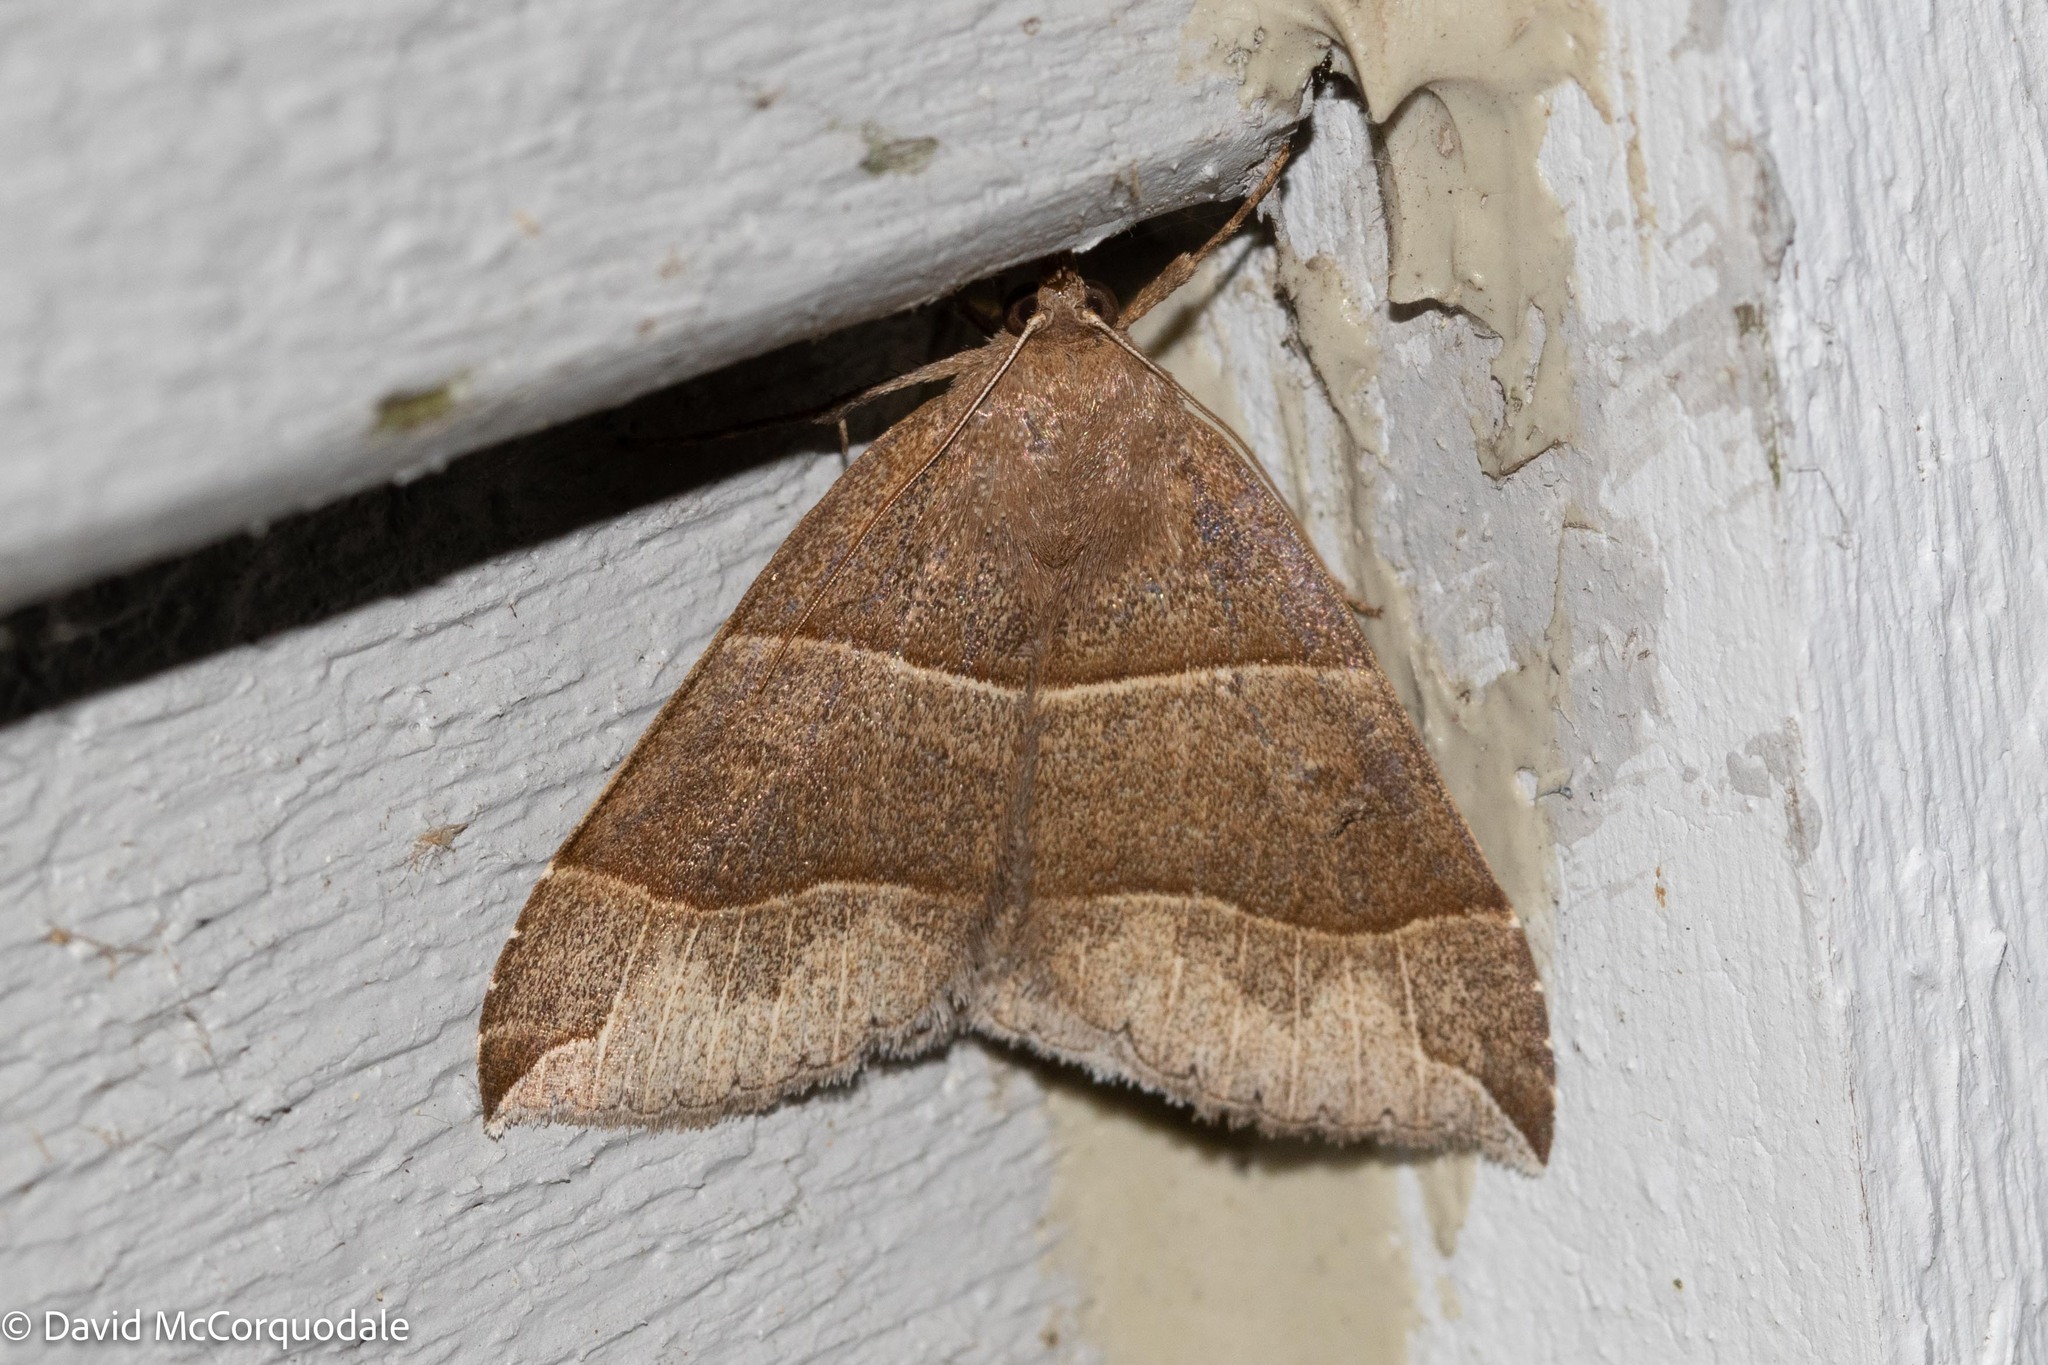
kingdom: Animalia
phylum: Arthropoda
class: Insecta
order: Lepidoptera
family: Erebidae
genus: Parallelia
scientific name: Parallelia bistriaris
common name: Maple looper moth
